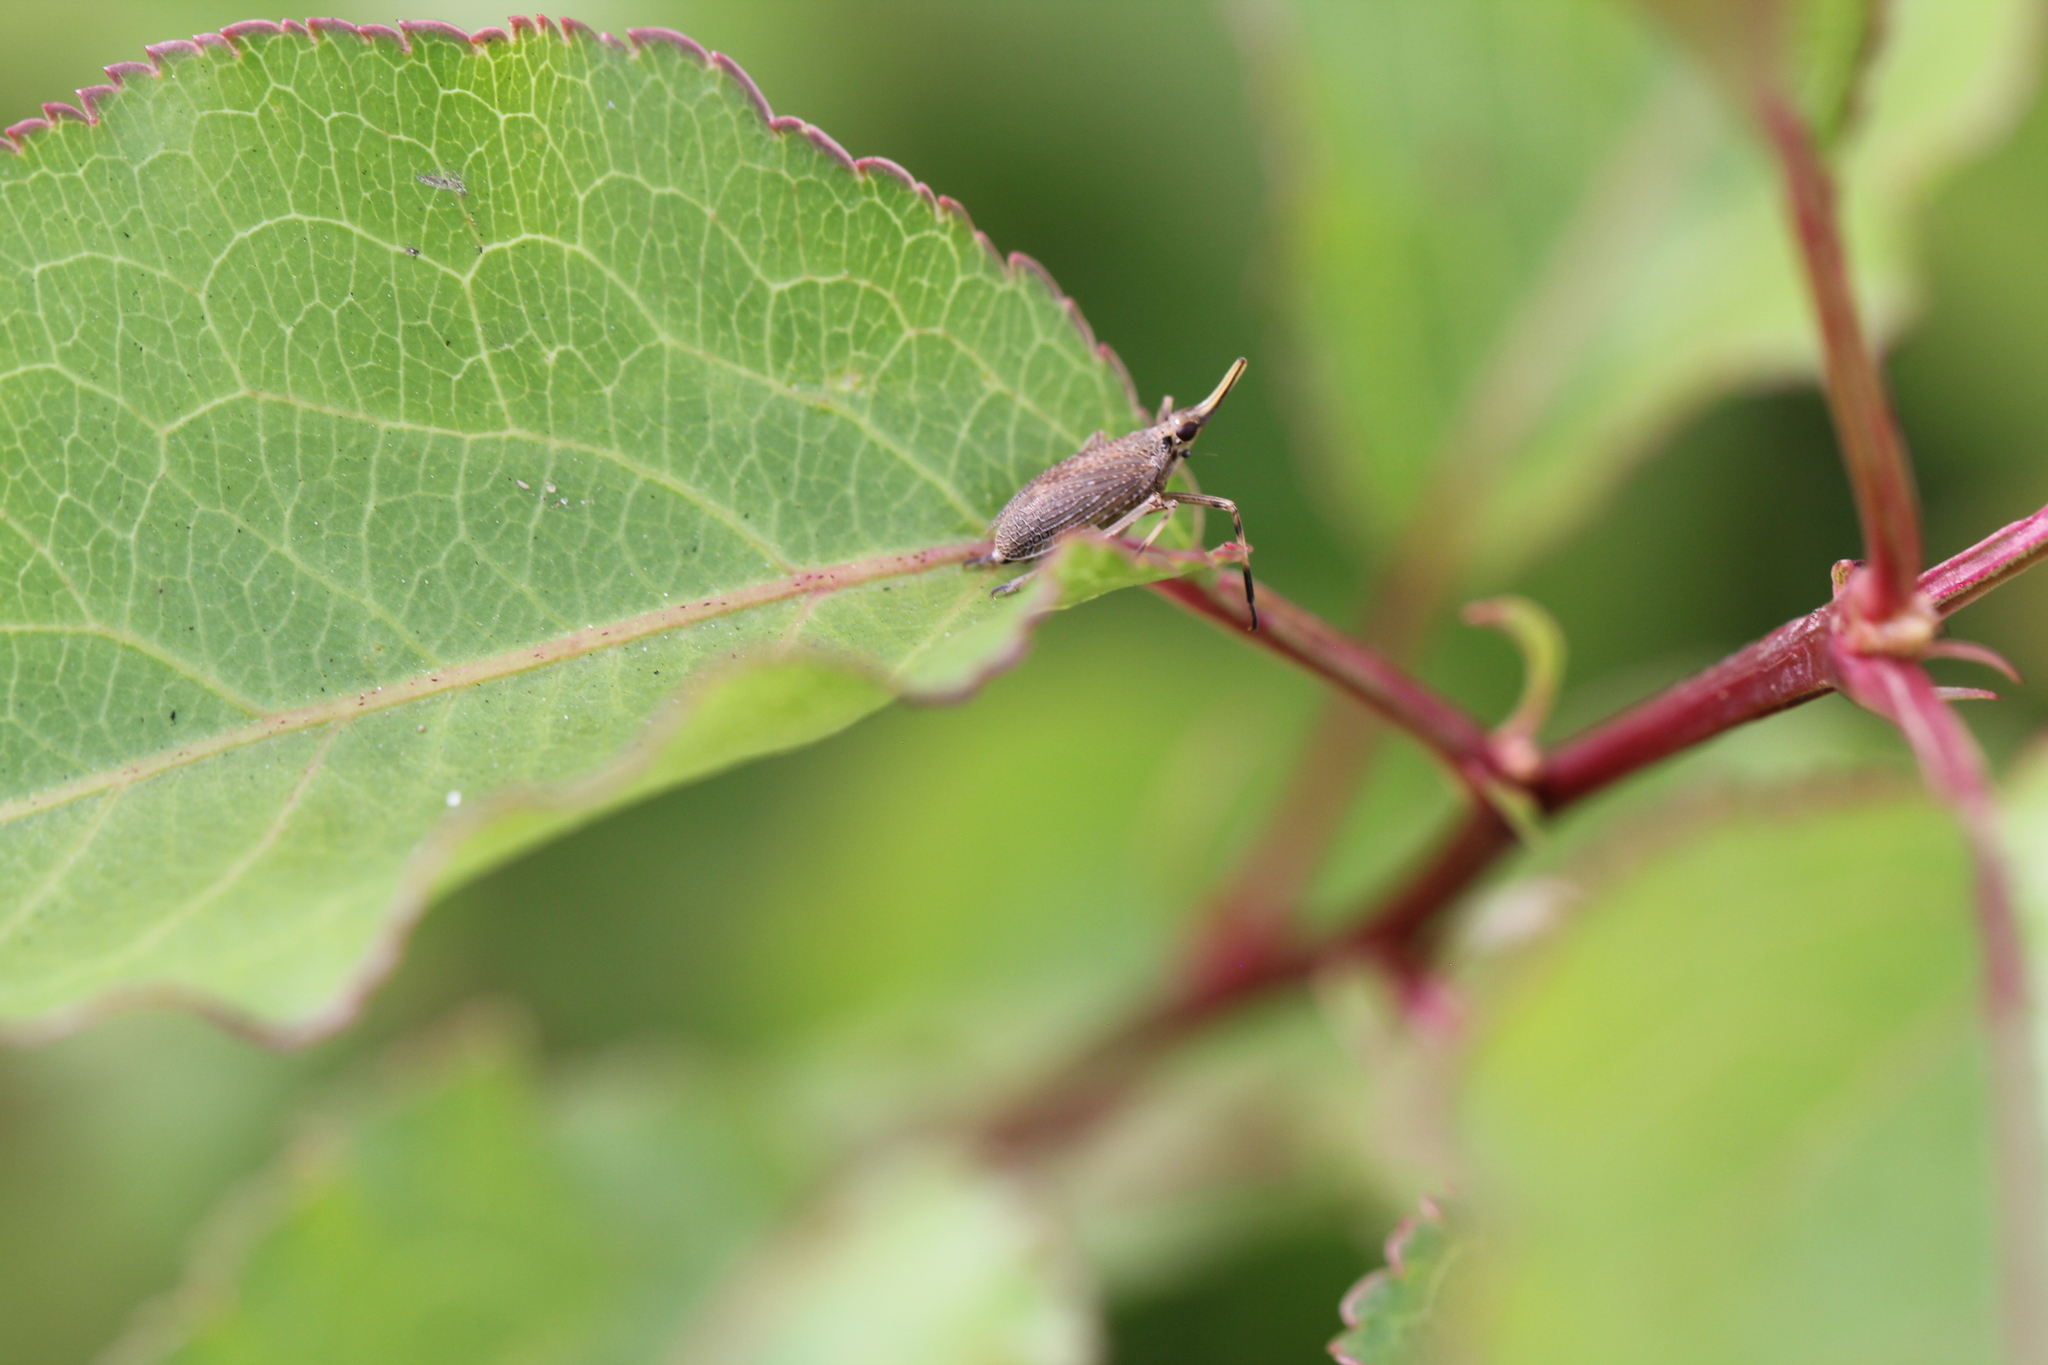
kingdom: Animalia
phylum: Arthropoda
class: Insecta
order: Hemiptera
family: Dictyopharidae
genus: Scolops
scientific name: Scolops sulcipes
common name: Partridge planthopper
